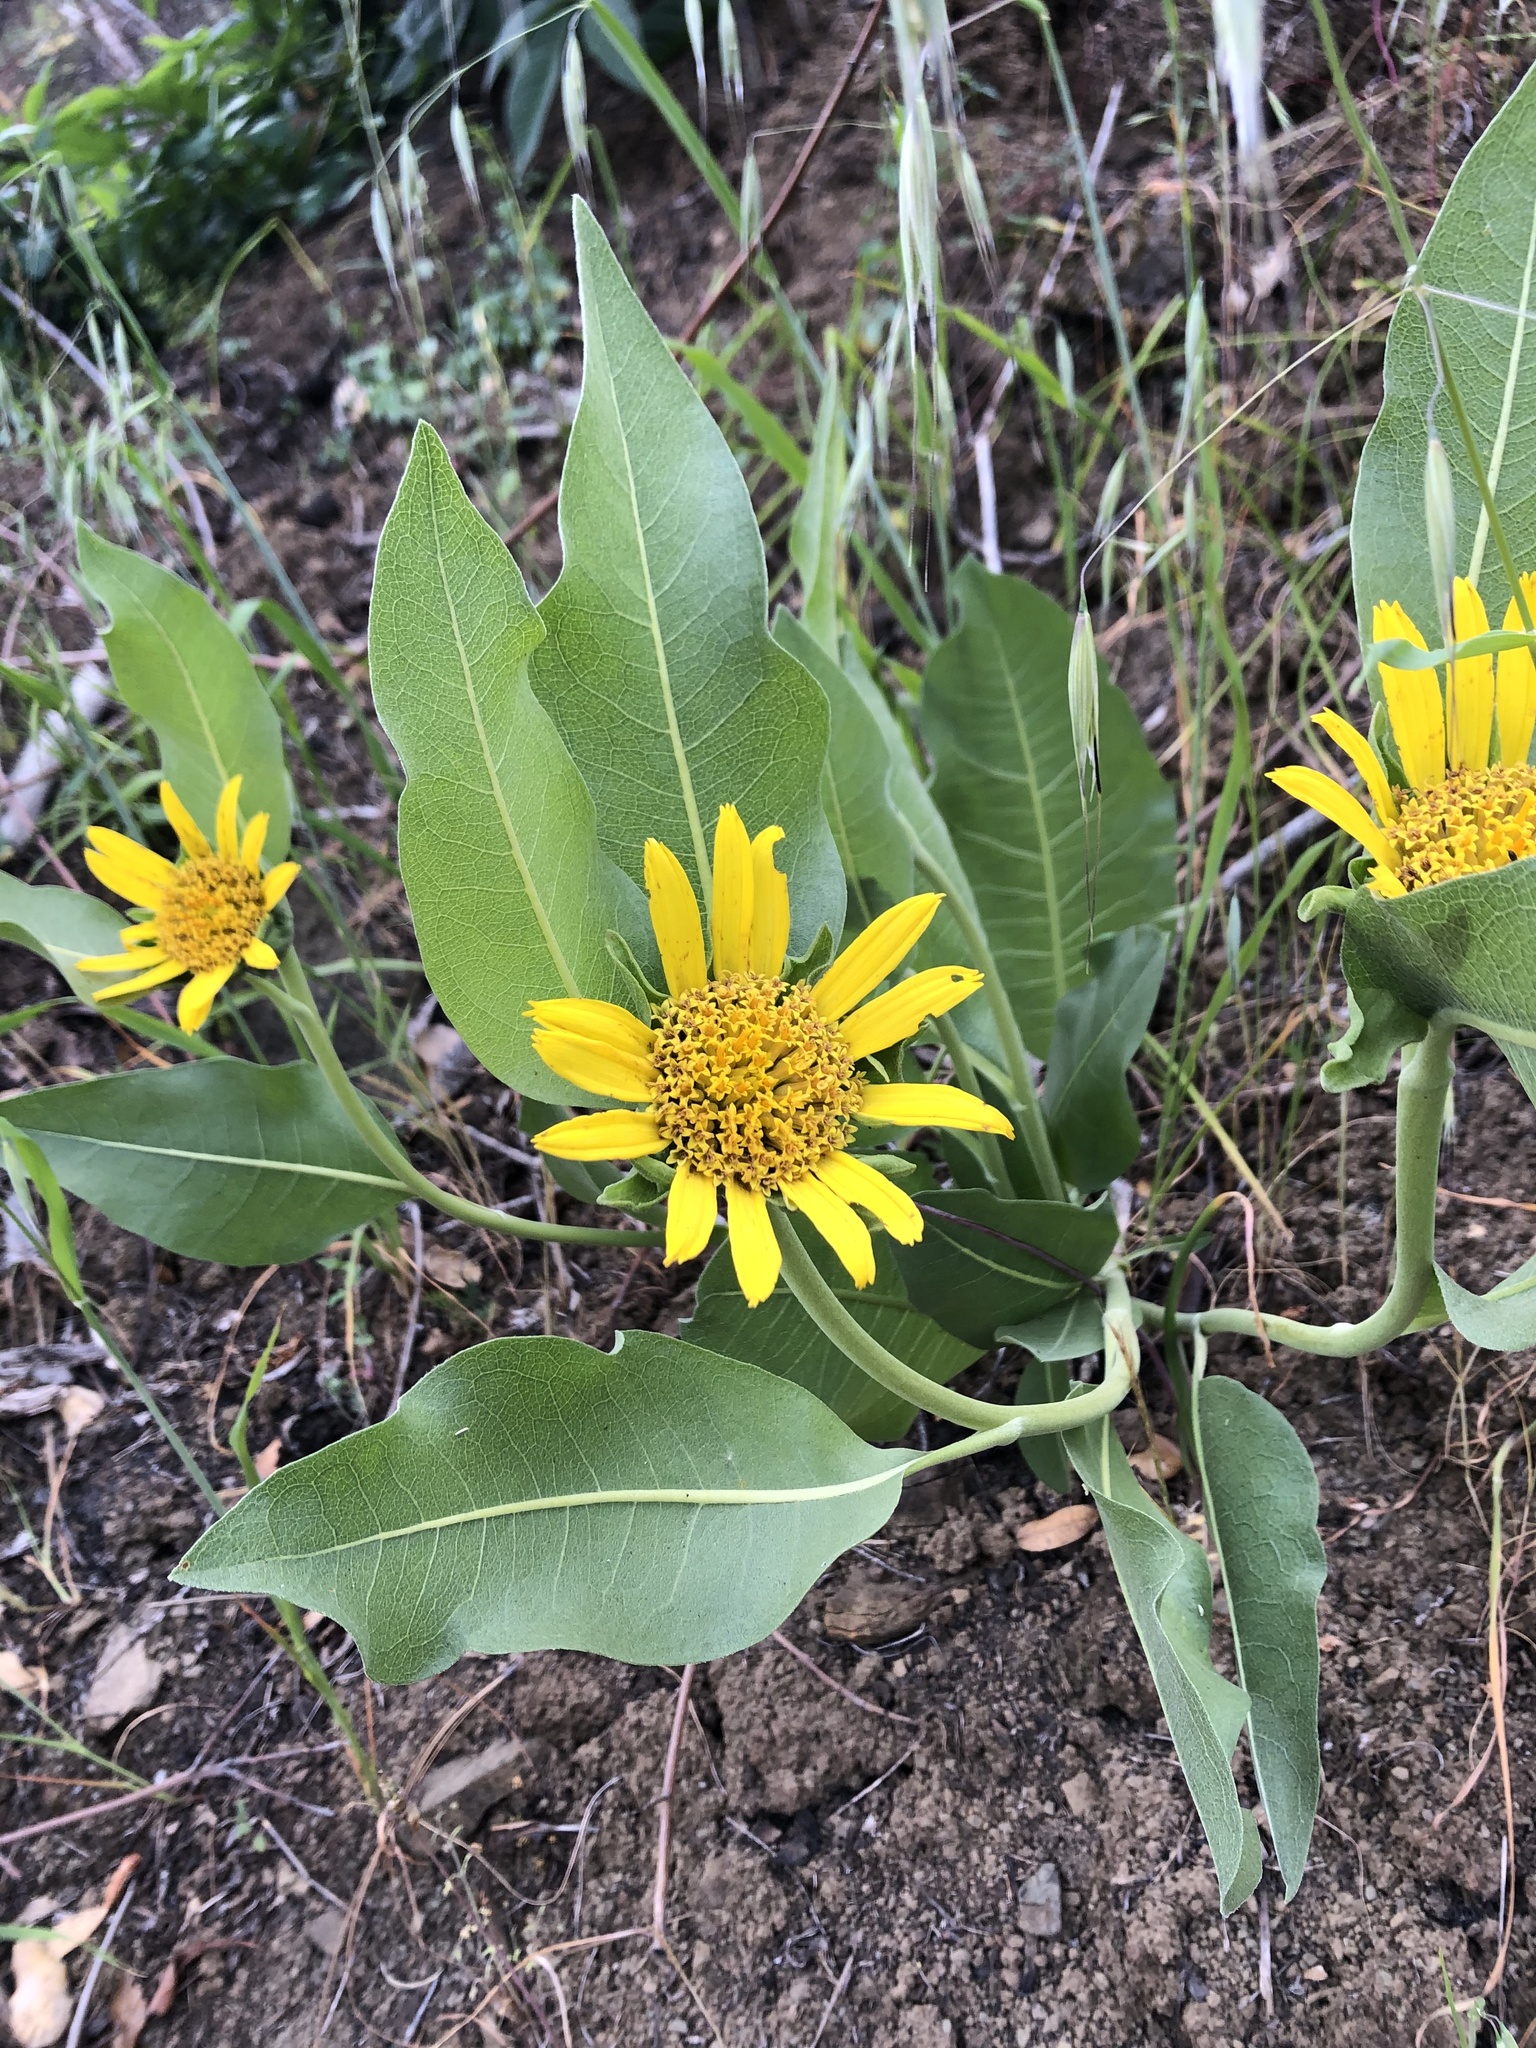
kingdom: Plantae
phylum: Tracheophyta
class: Magnoliopsida
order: Asterales
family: Asteraceae
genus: Wyethia
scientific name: Wyethia glabra
